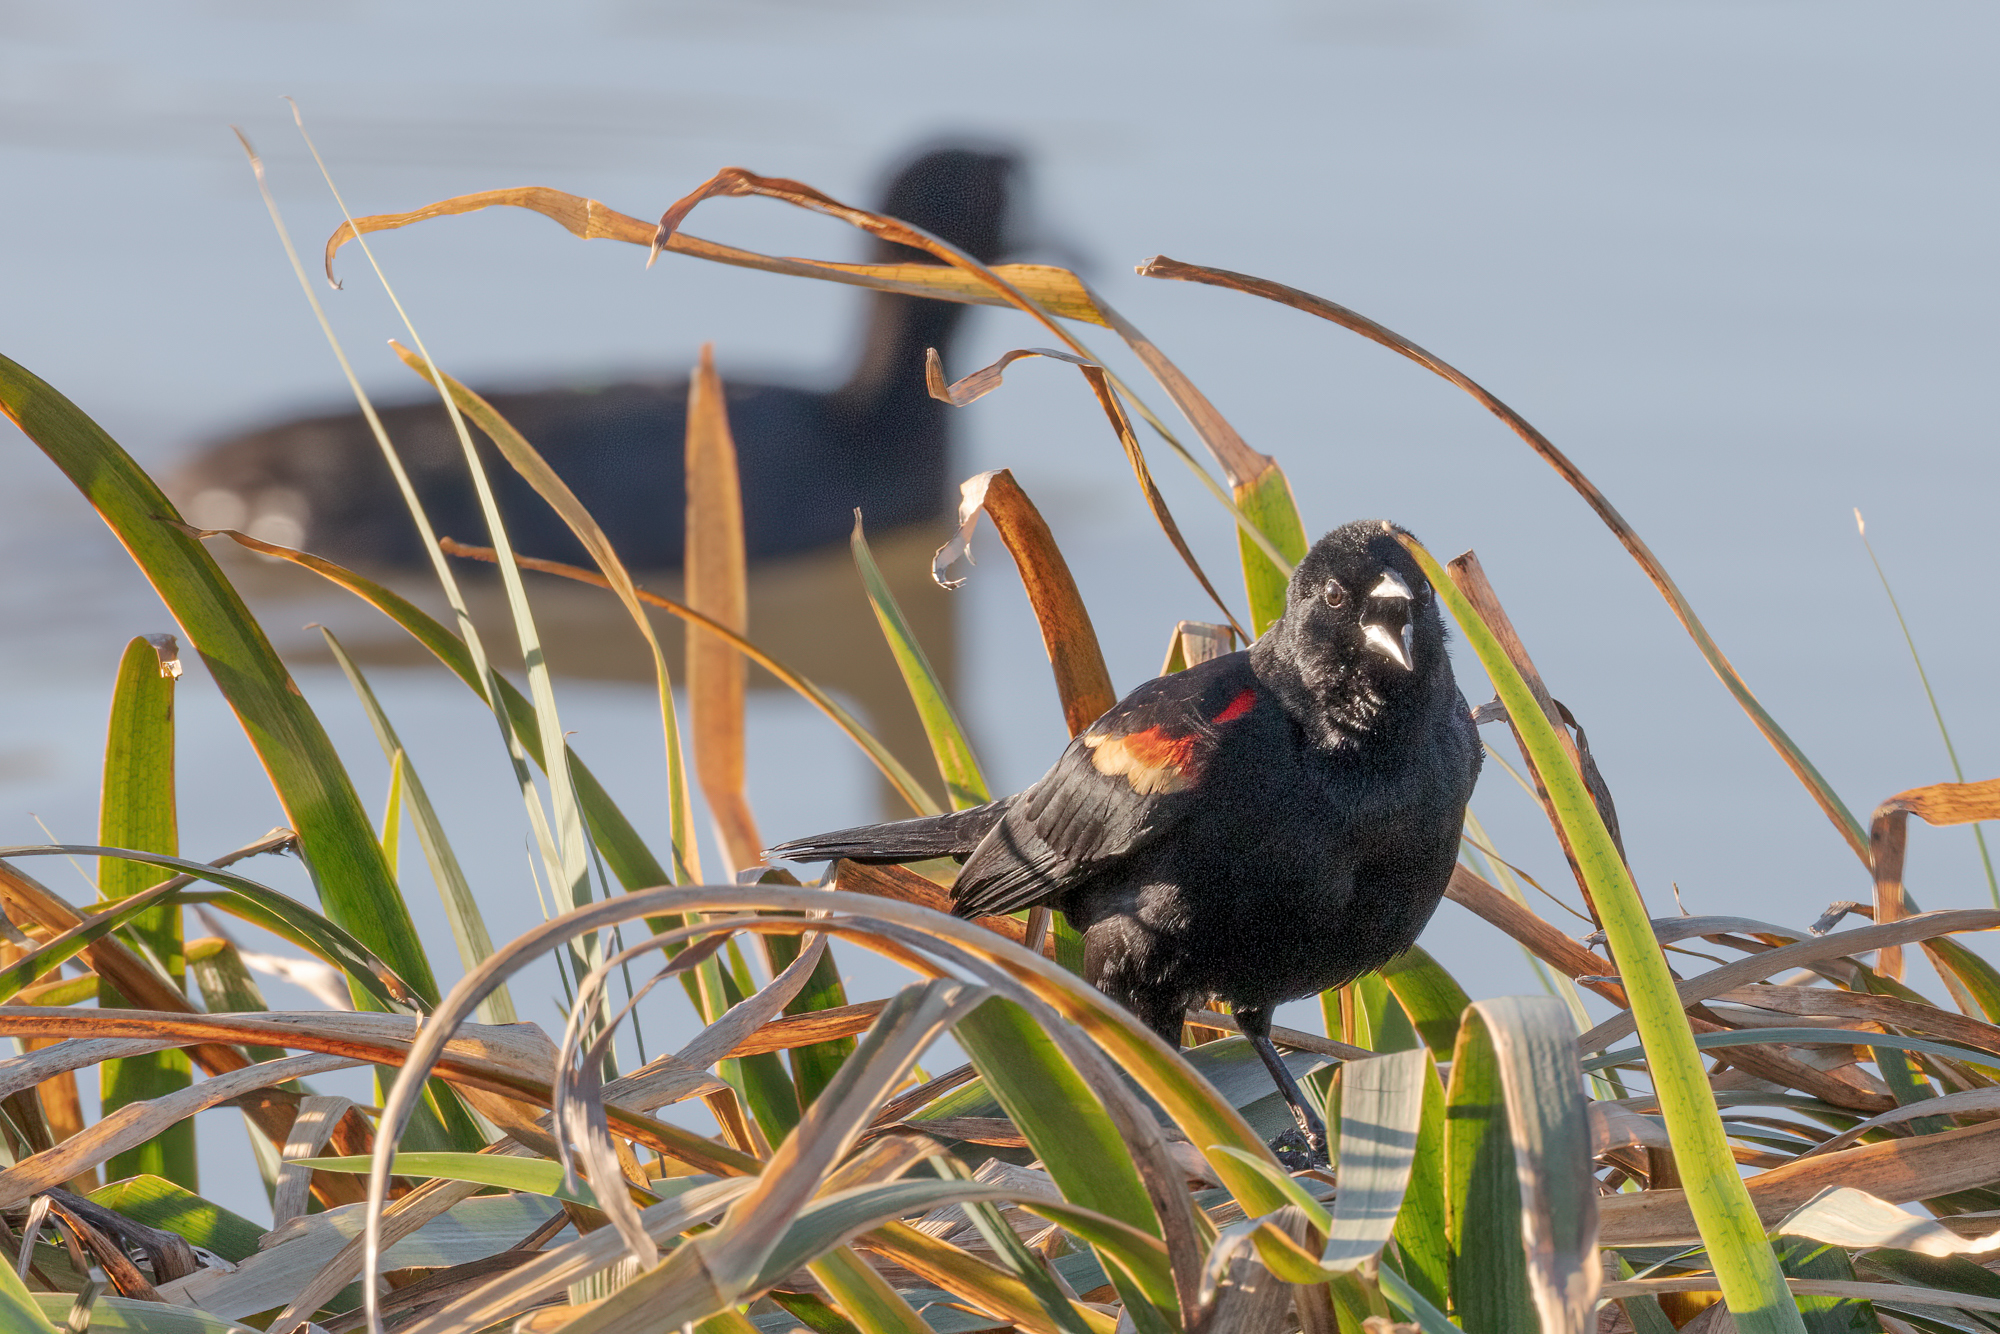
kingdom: Animalia
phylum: Chordata
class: Aves
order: Passeriformes
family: Icteridae
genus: Agelaius
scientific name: Agelaius phoeniceus
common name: Red-winged blackbird
